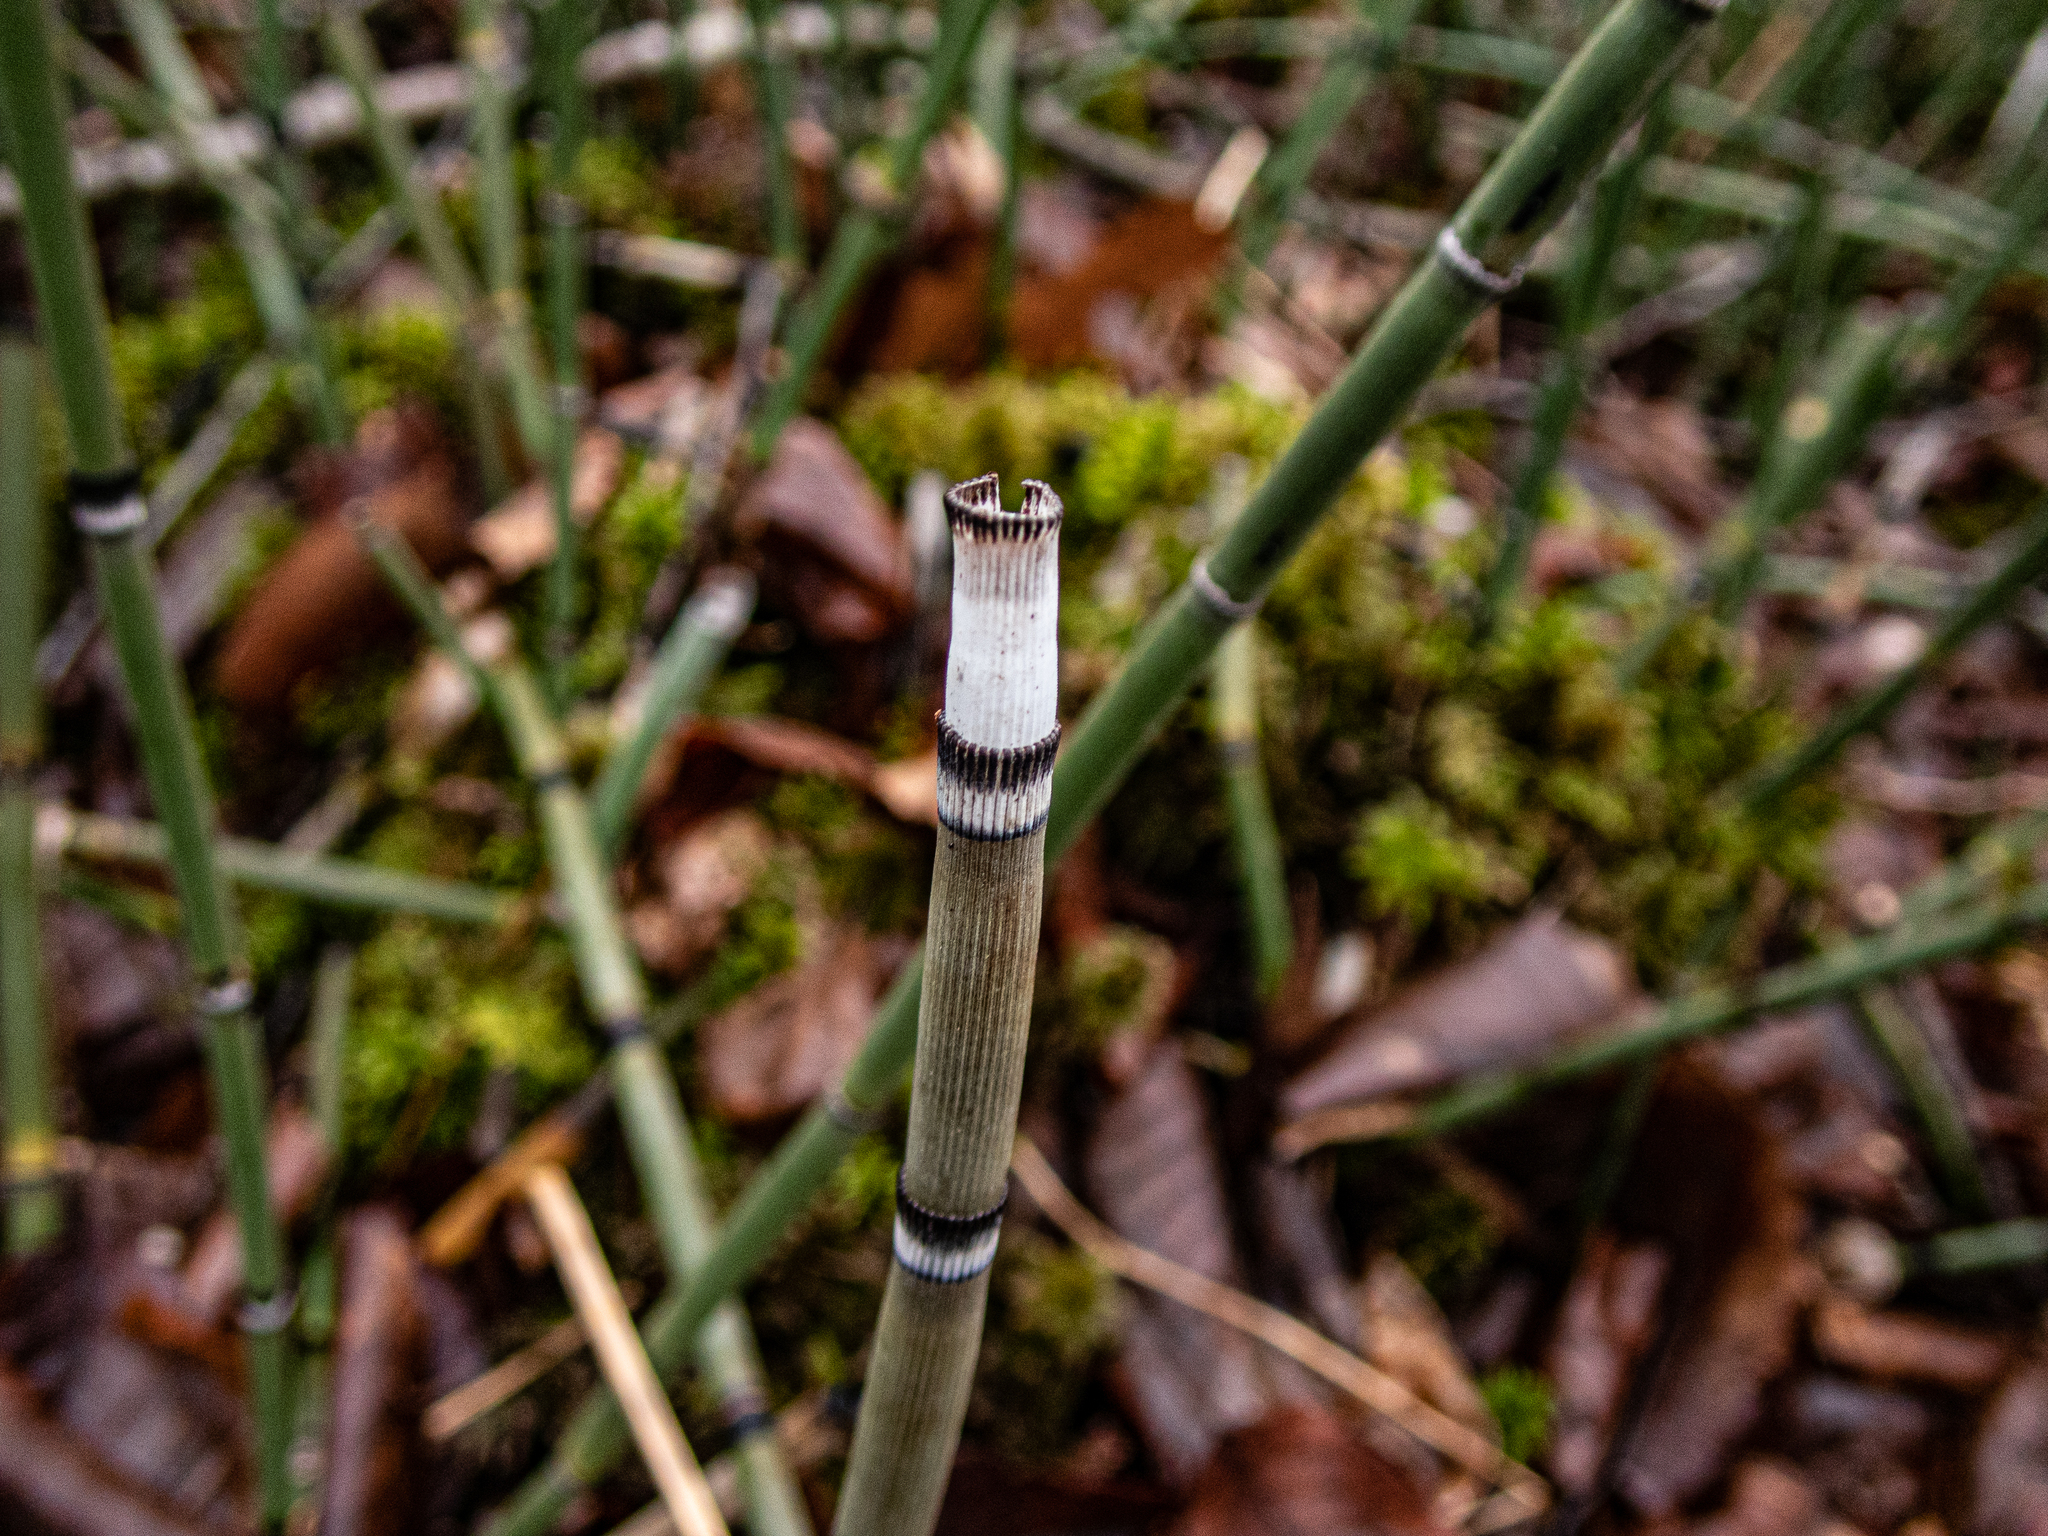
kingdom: Plantae
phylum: Tracheophyta
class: Polypodiopsida
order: Equisetales
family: Equisetaceae
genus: Equisetum
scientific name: Equisetum praealtum
